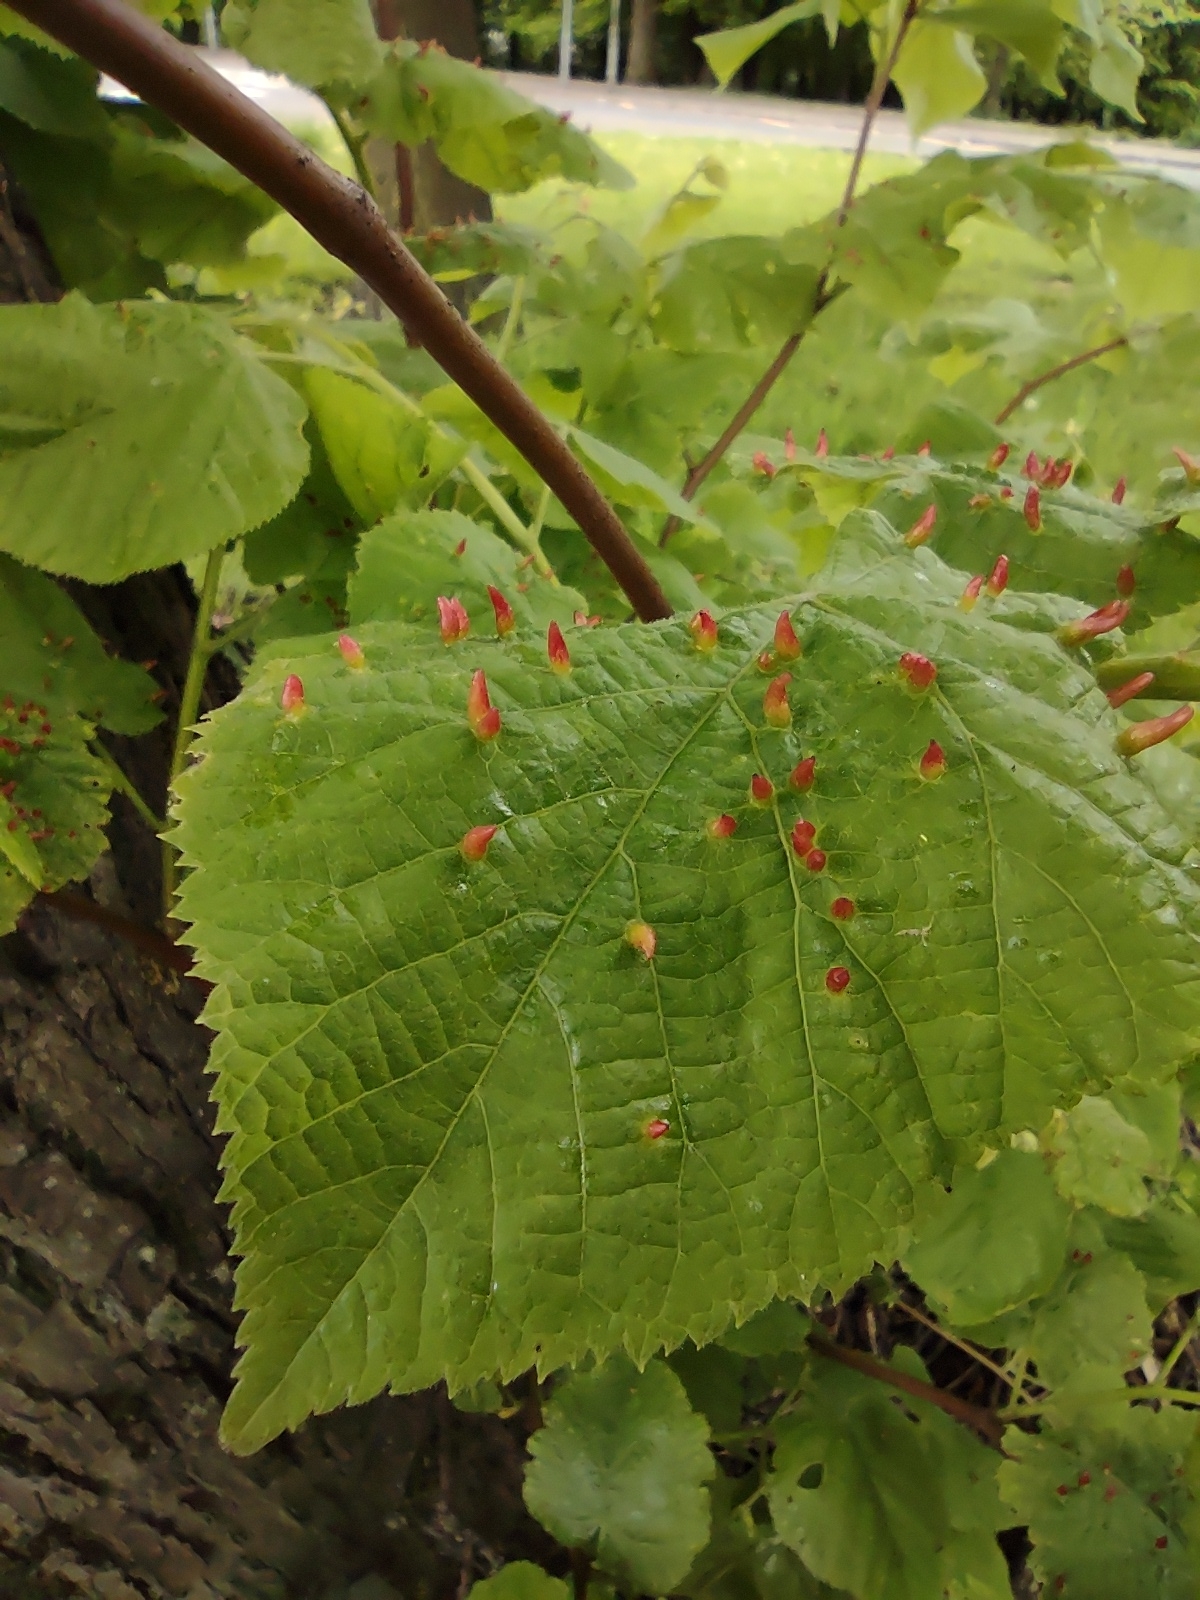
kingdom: Animalia
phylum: Arthropoda
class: Arachnida
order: Trombidiformes
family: Eriophyidae
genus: Eriophyes
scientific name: Eriophyes tiliae
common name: Red nail gall mite
